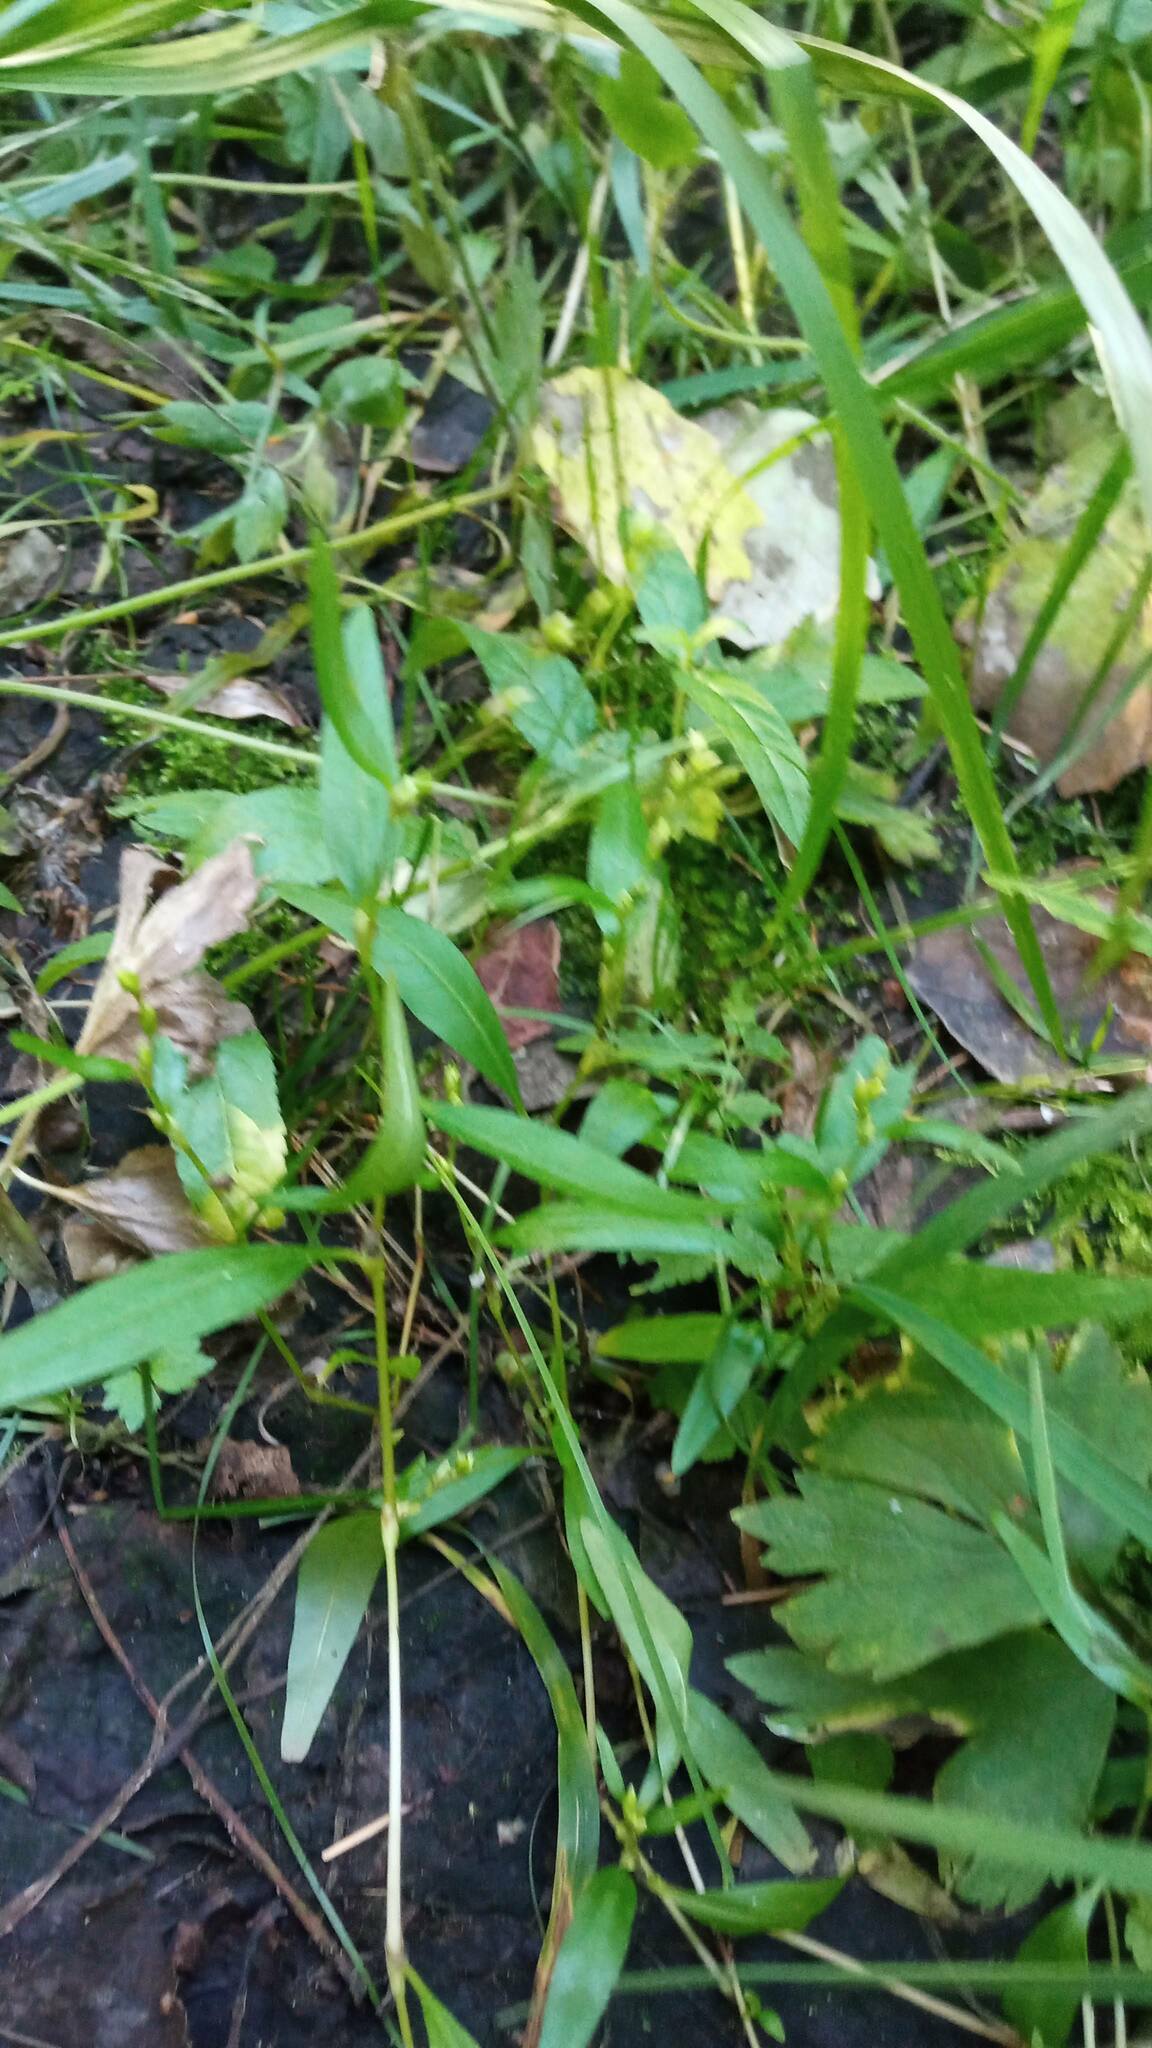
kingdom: Plantae
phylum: Tracheophyta
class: Magnoliopsida
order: Caryophyllales
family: Polygonaceae
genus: Persicaria
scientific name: Persicaria hydropiper
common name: Water-pepper
